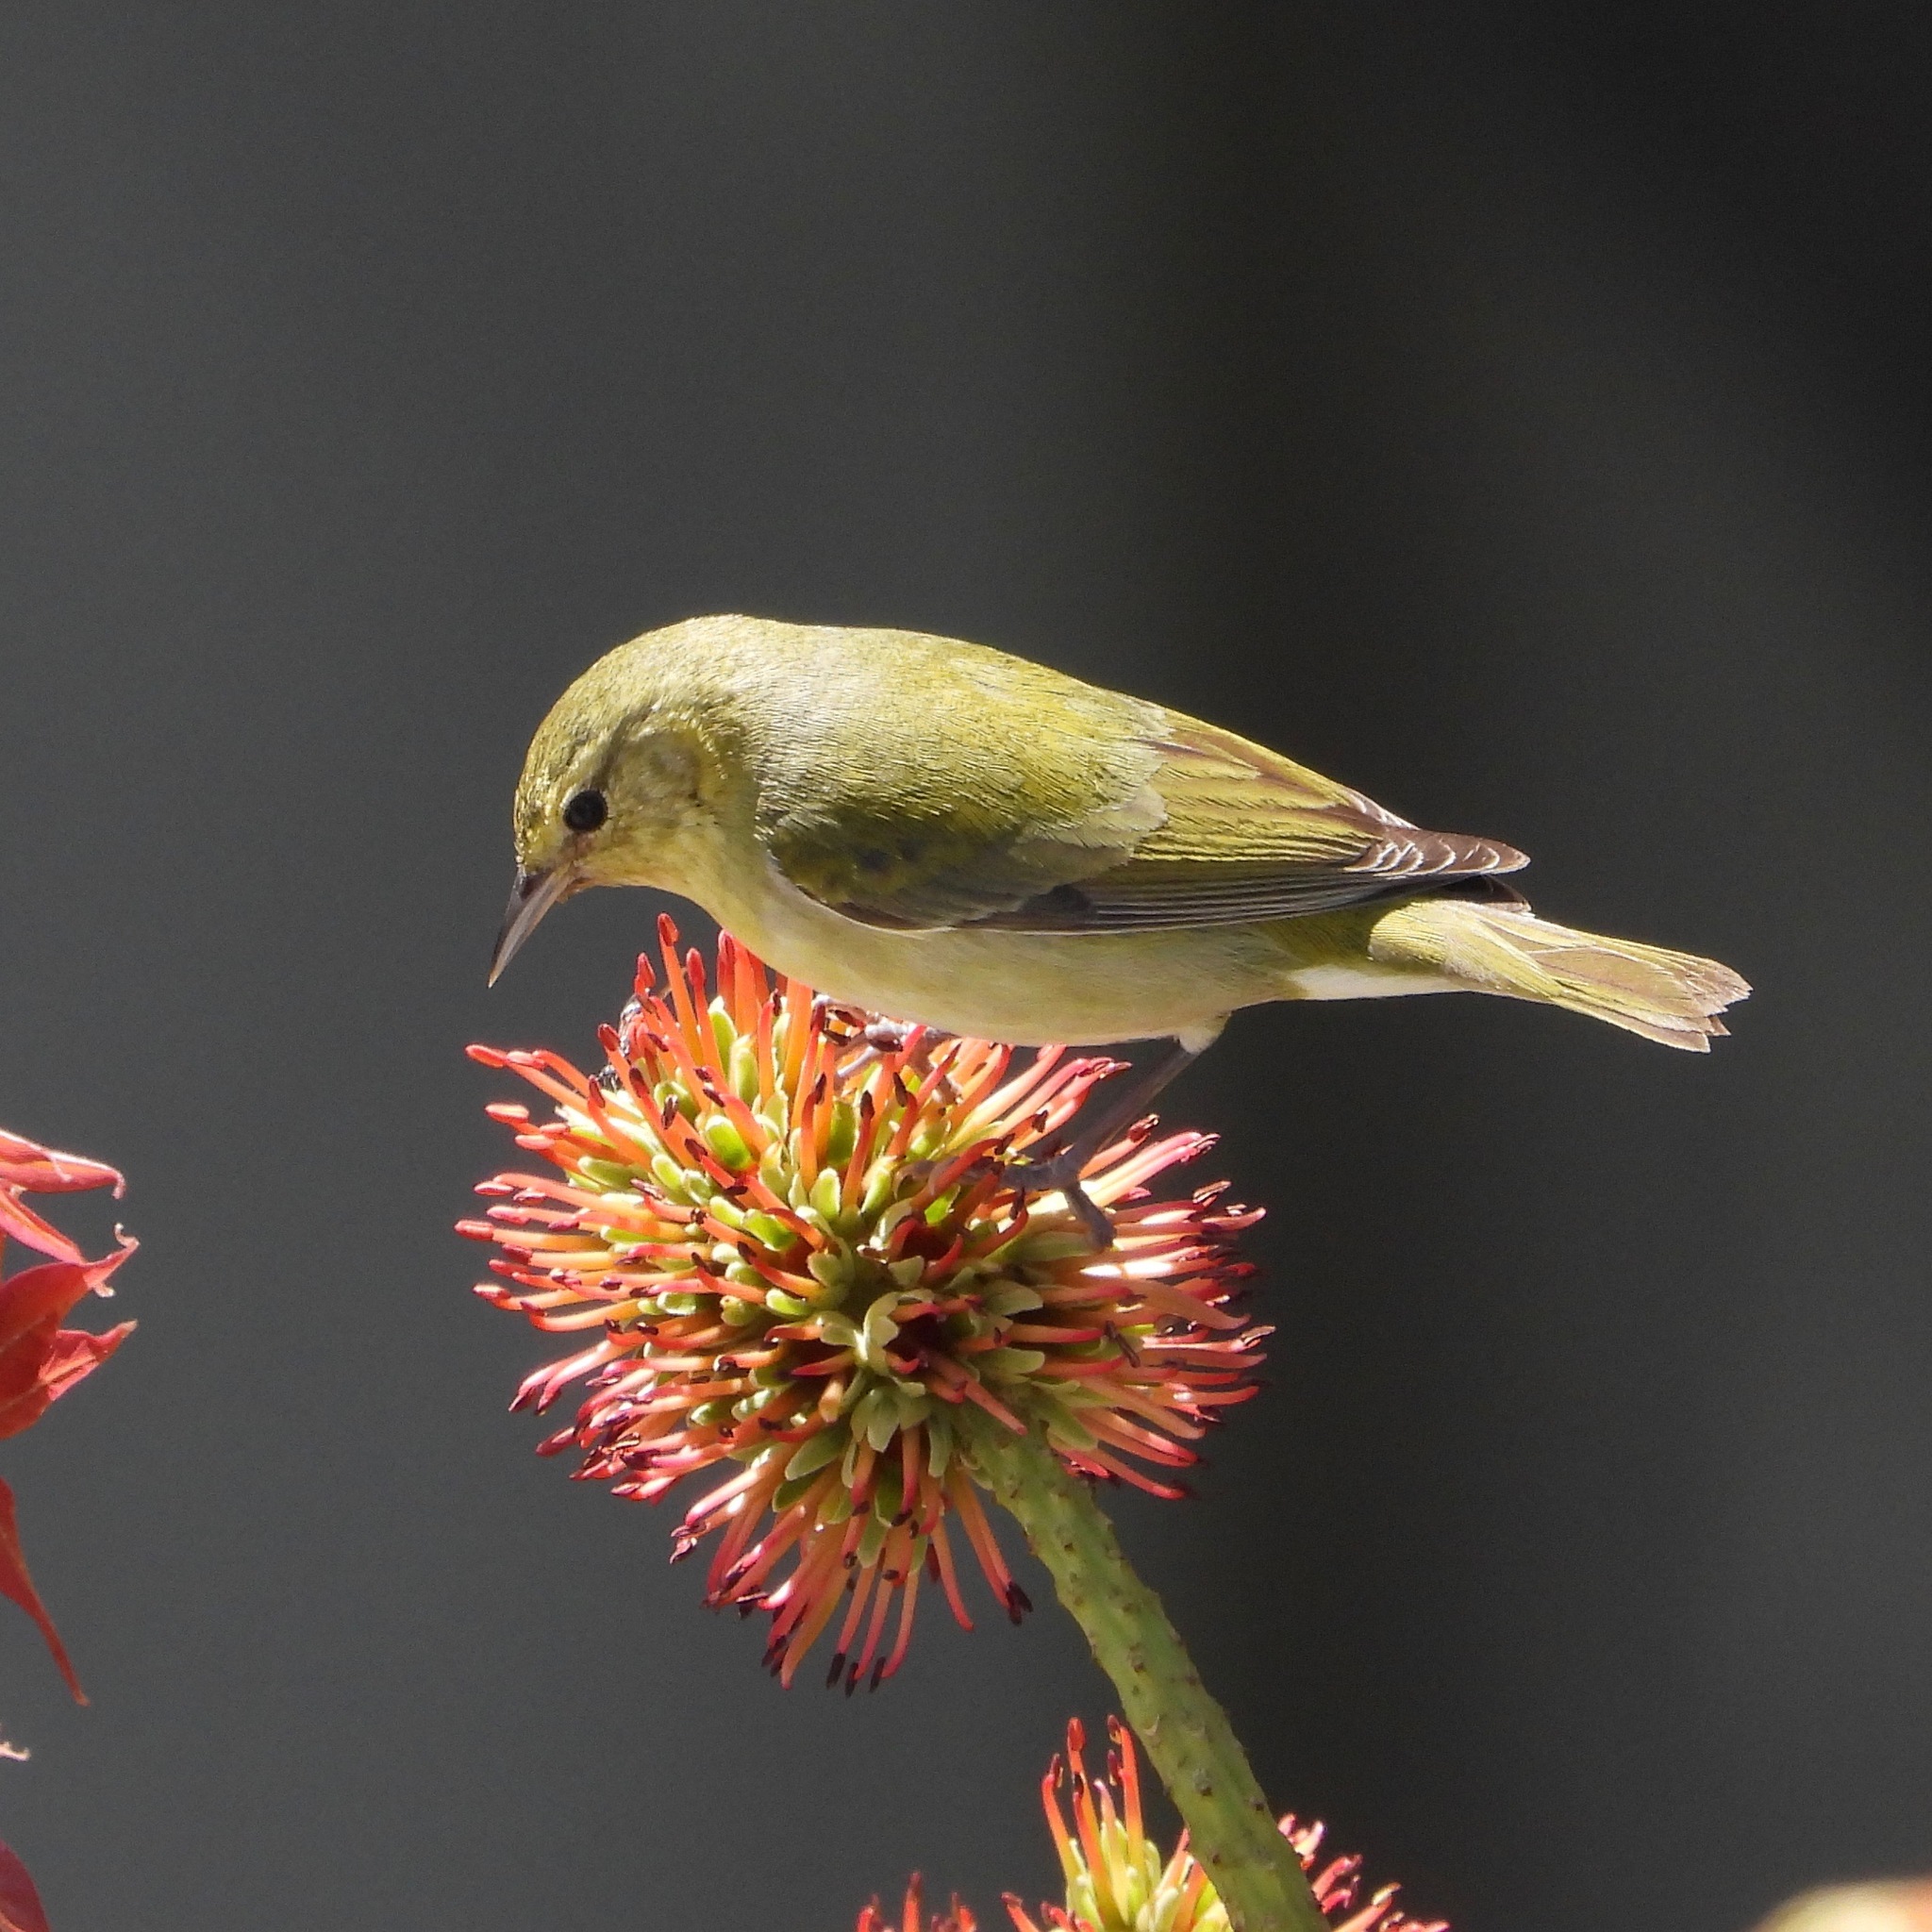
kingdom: Animalia
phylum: Chordata
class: Aves
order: Passeriformes
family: Parulidae
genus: Leiothlypis
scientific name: Leiothlypis peregrina
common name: Tennessee warbler
